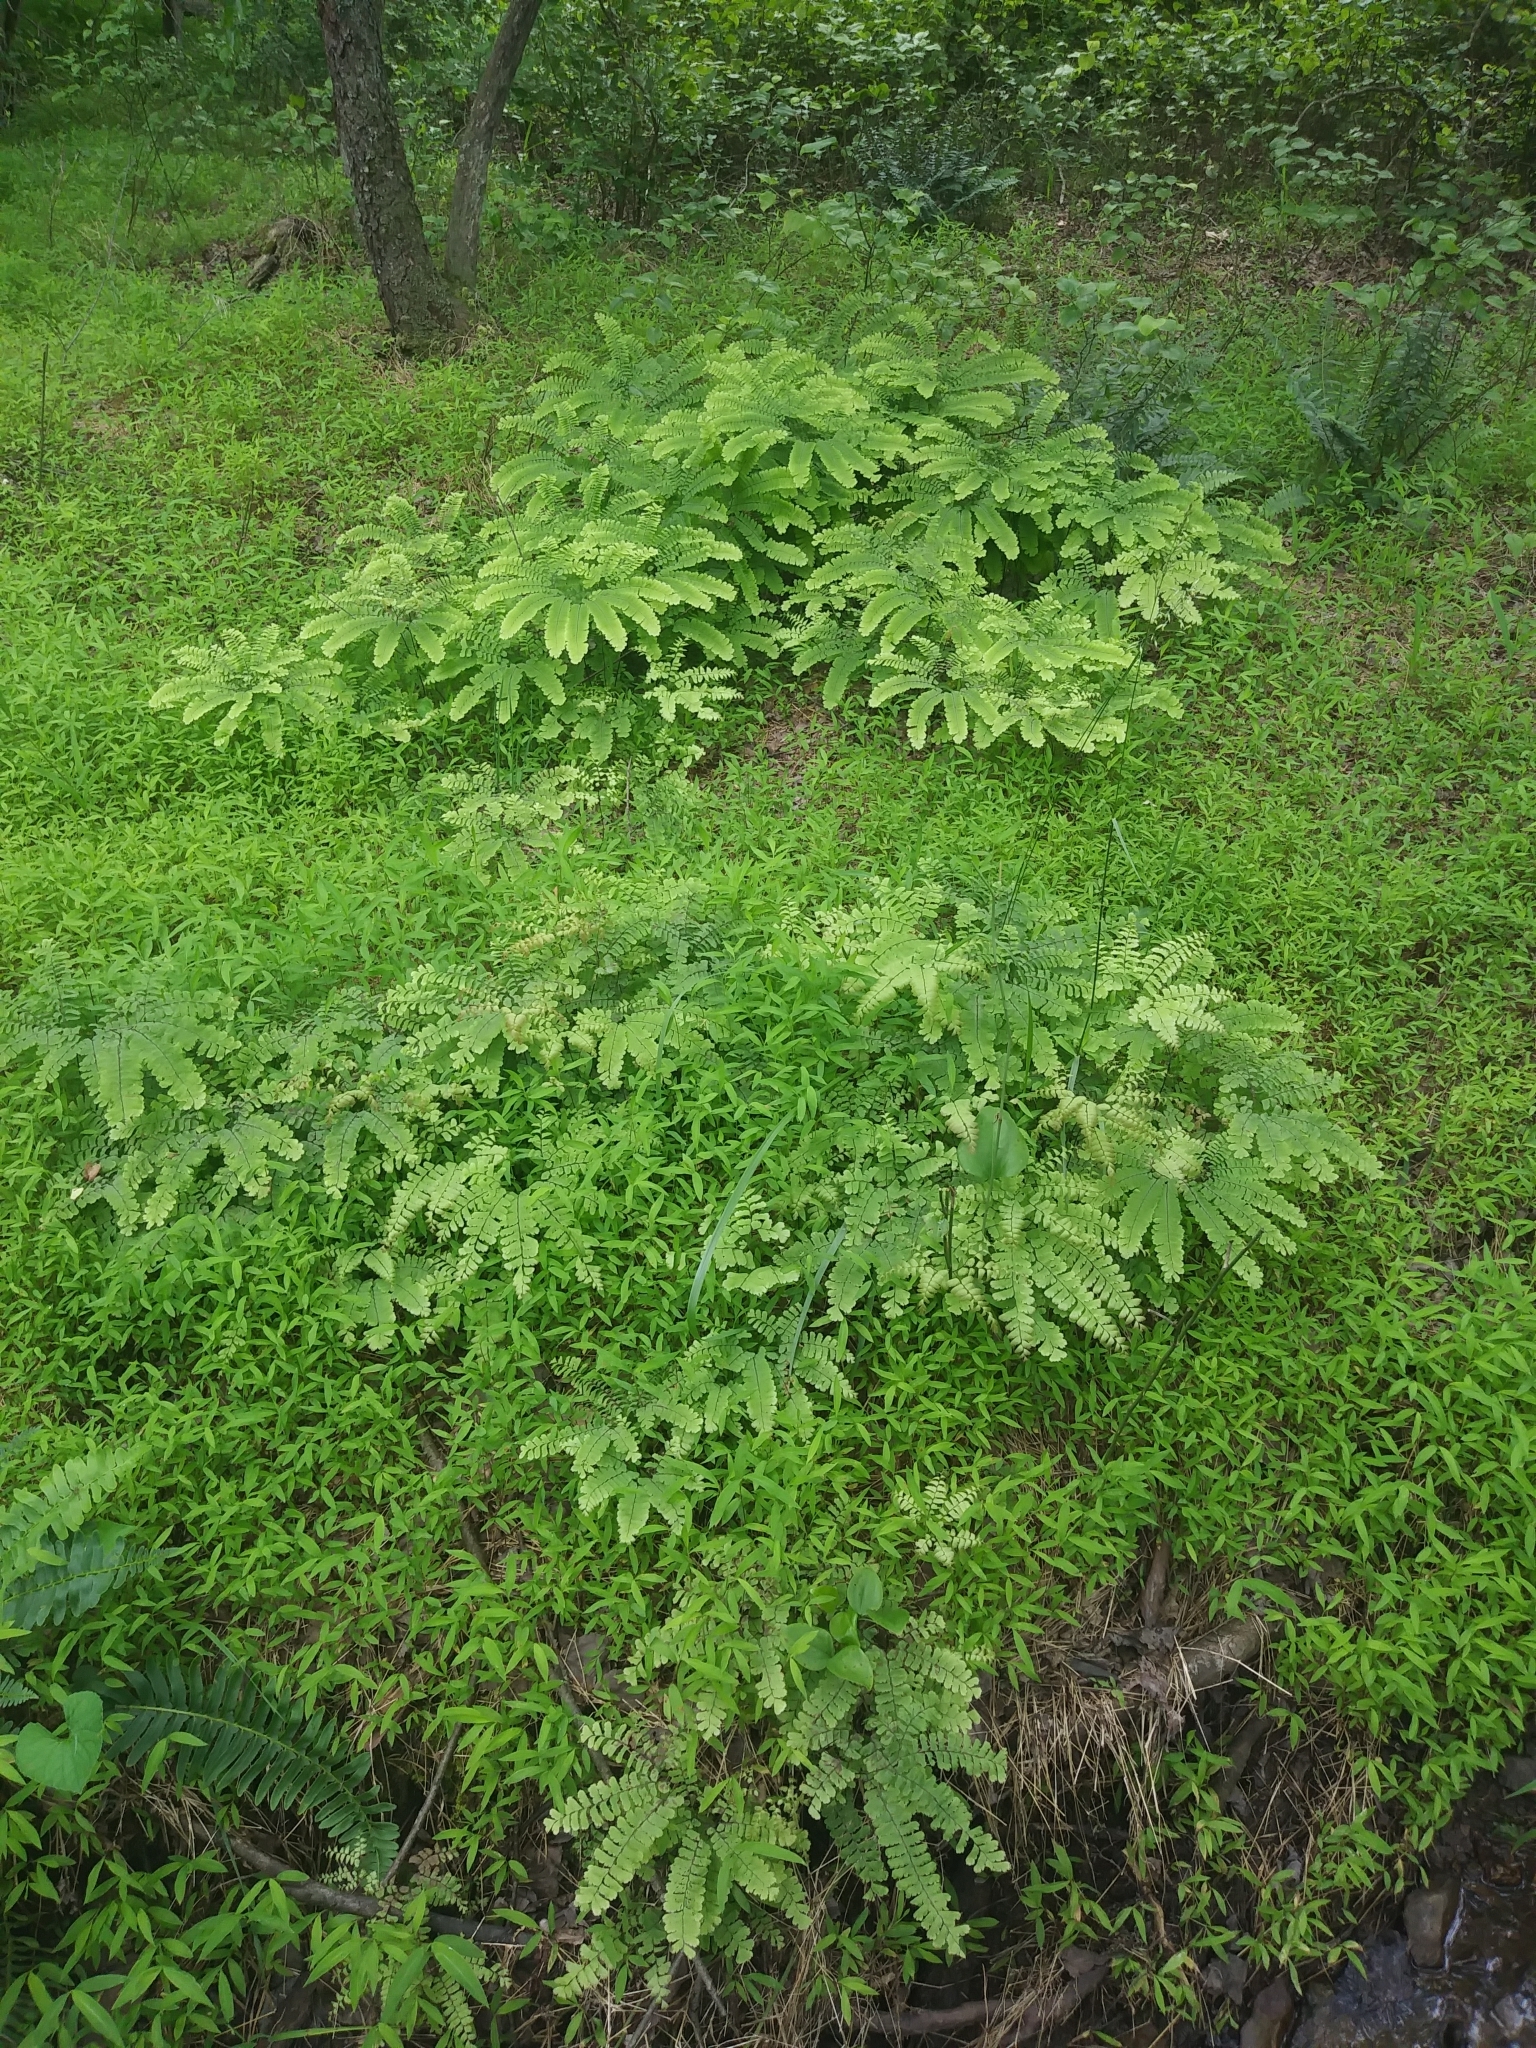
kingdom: Plantae
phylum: Tracheophyta
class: Polypodiopsida
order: Polypodiales
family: Pteridaceae
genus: Adiantum
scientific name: Adiantum pedatum
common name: Five-finger fern
